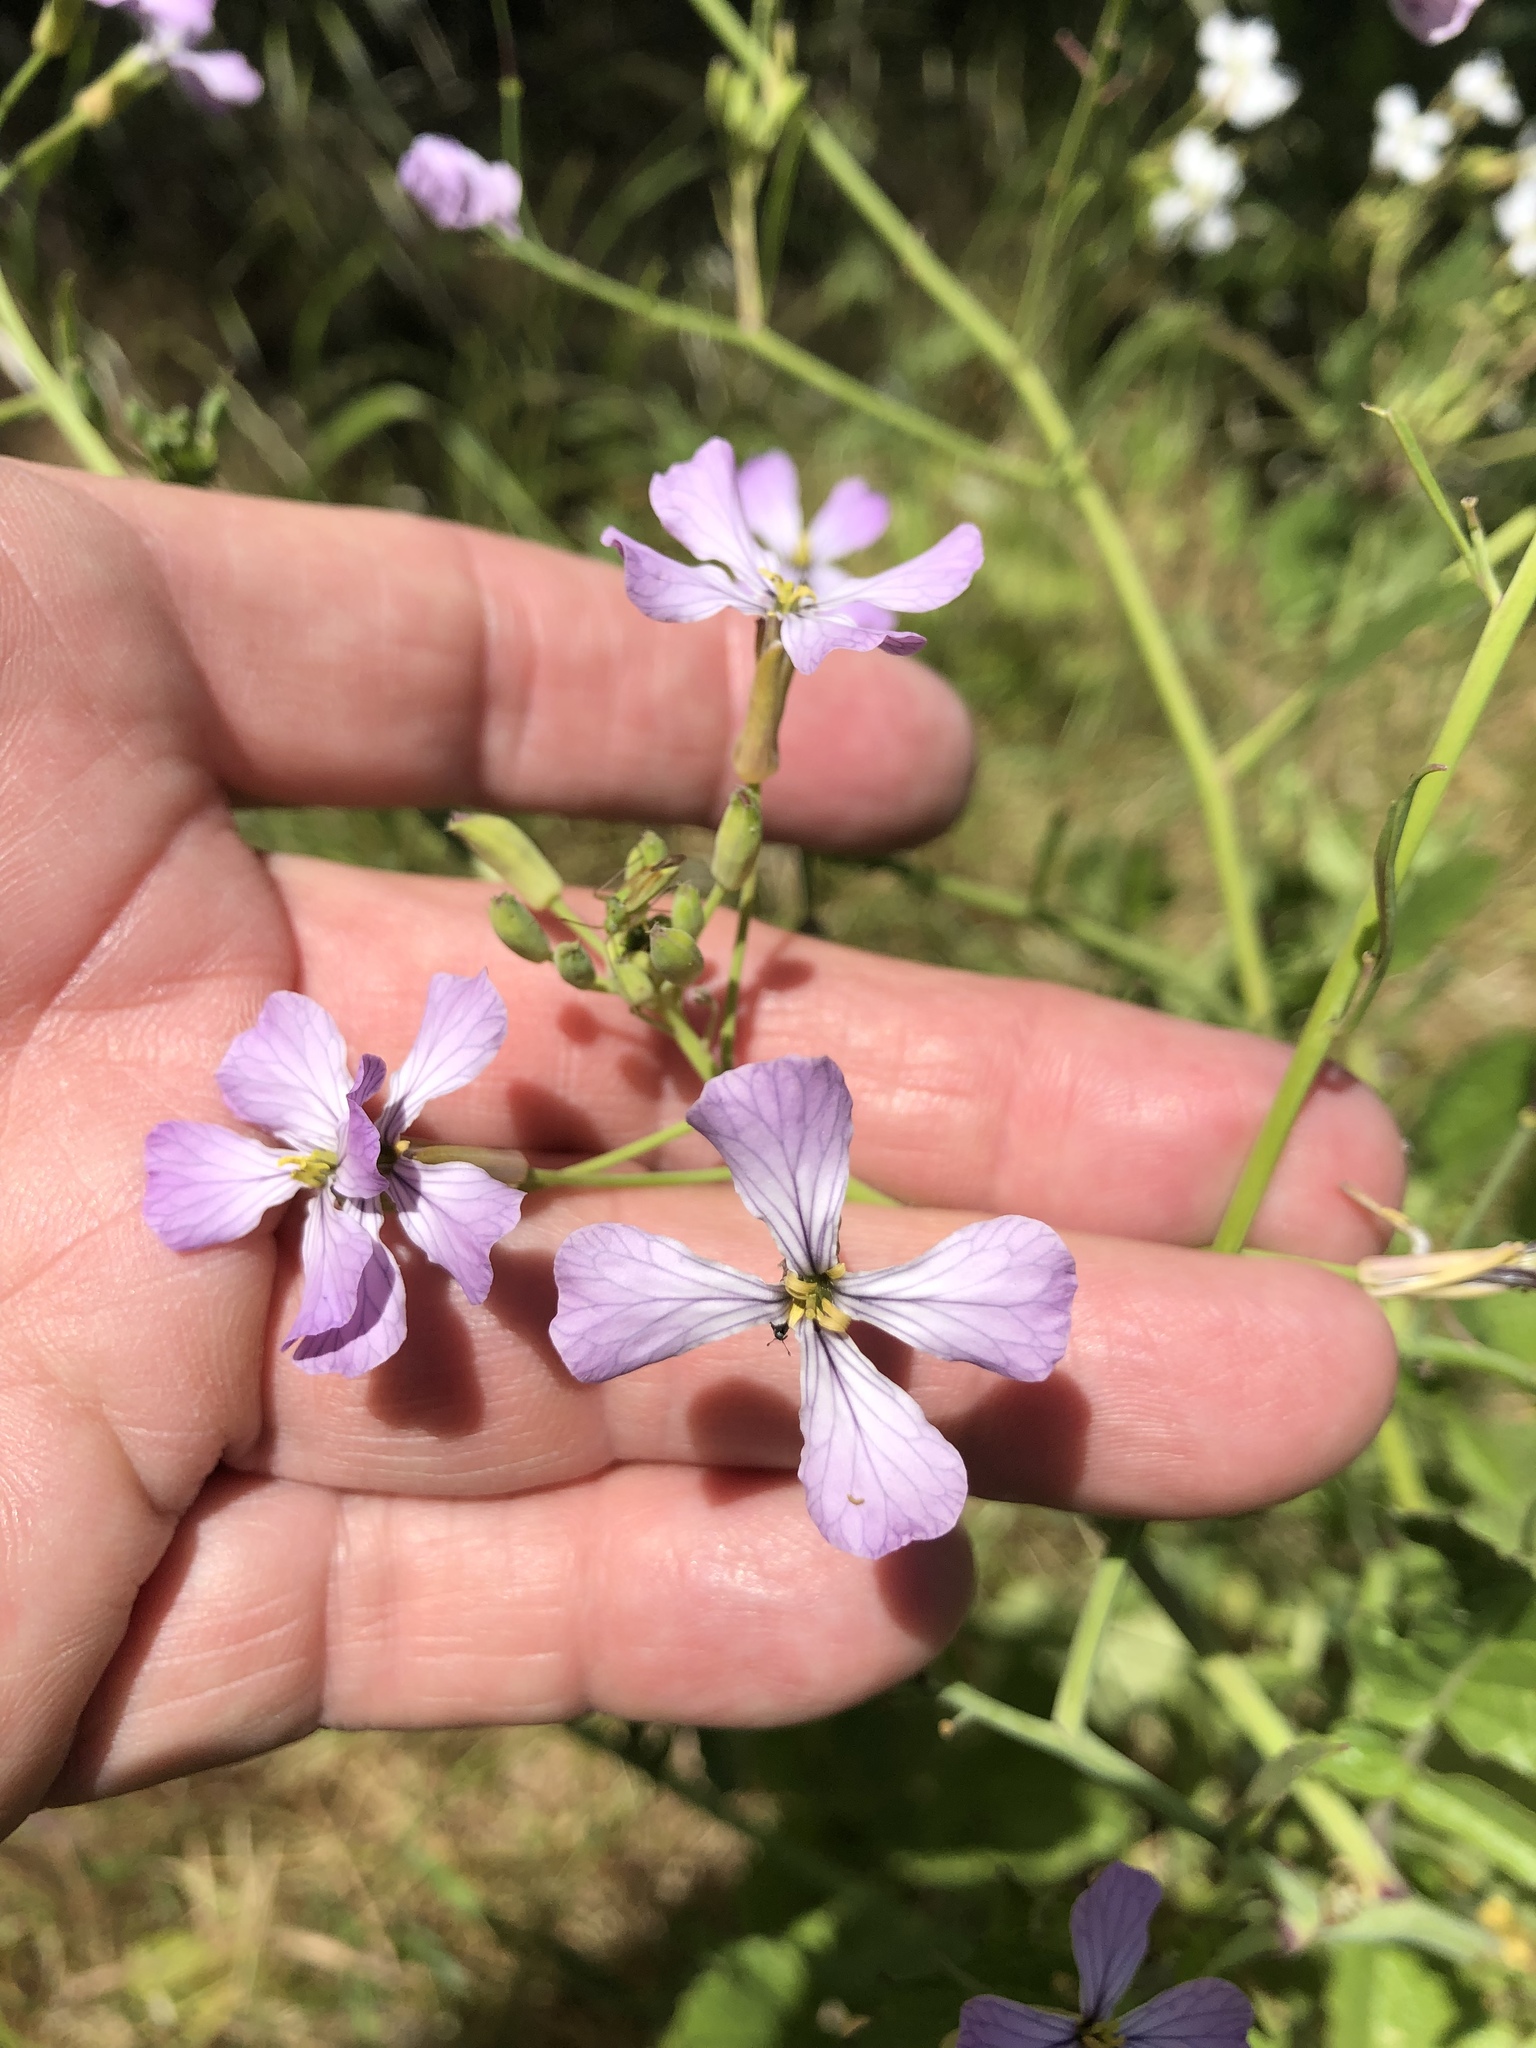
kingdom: Plantae
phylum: Tracheophyta
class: Magnoliopsida
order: Brassicales
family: Brassicaceae
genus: Raphanus
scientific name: Raphanus sativus
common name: Cultivated radish
